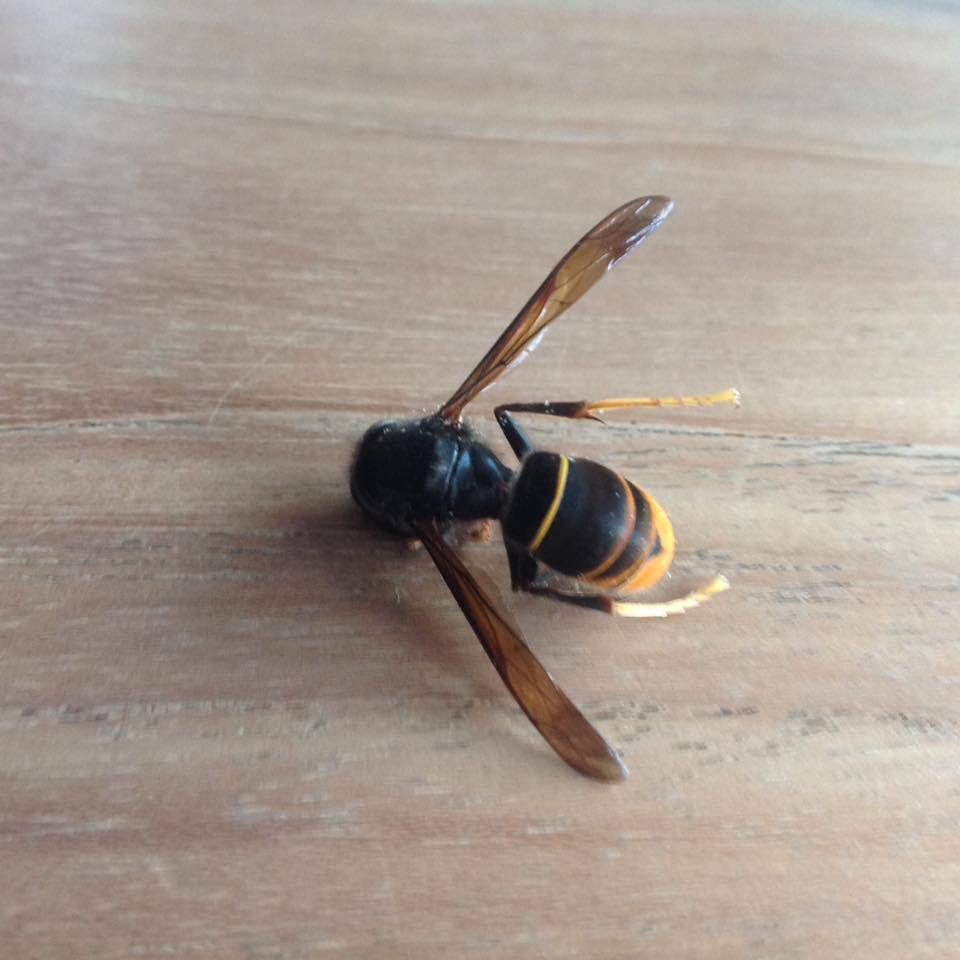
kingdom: Animalia
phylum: Arthropoda
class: Insecta
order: Hymenoptera
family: Vespidae
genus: Vespa
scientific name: Vespa velutina
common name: Asian hornet
